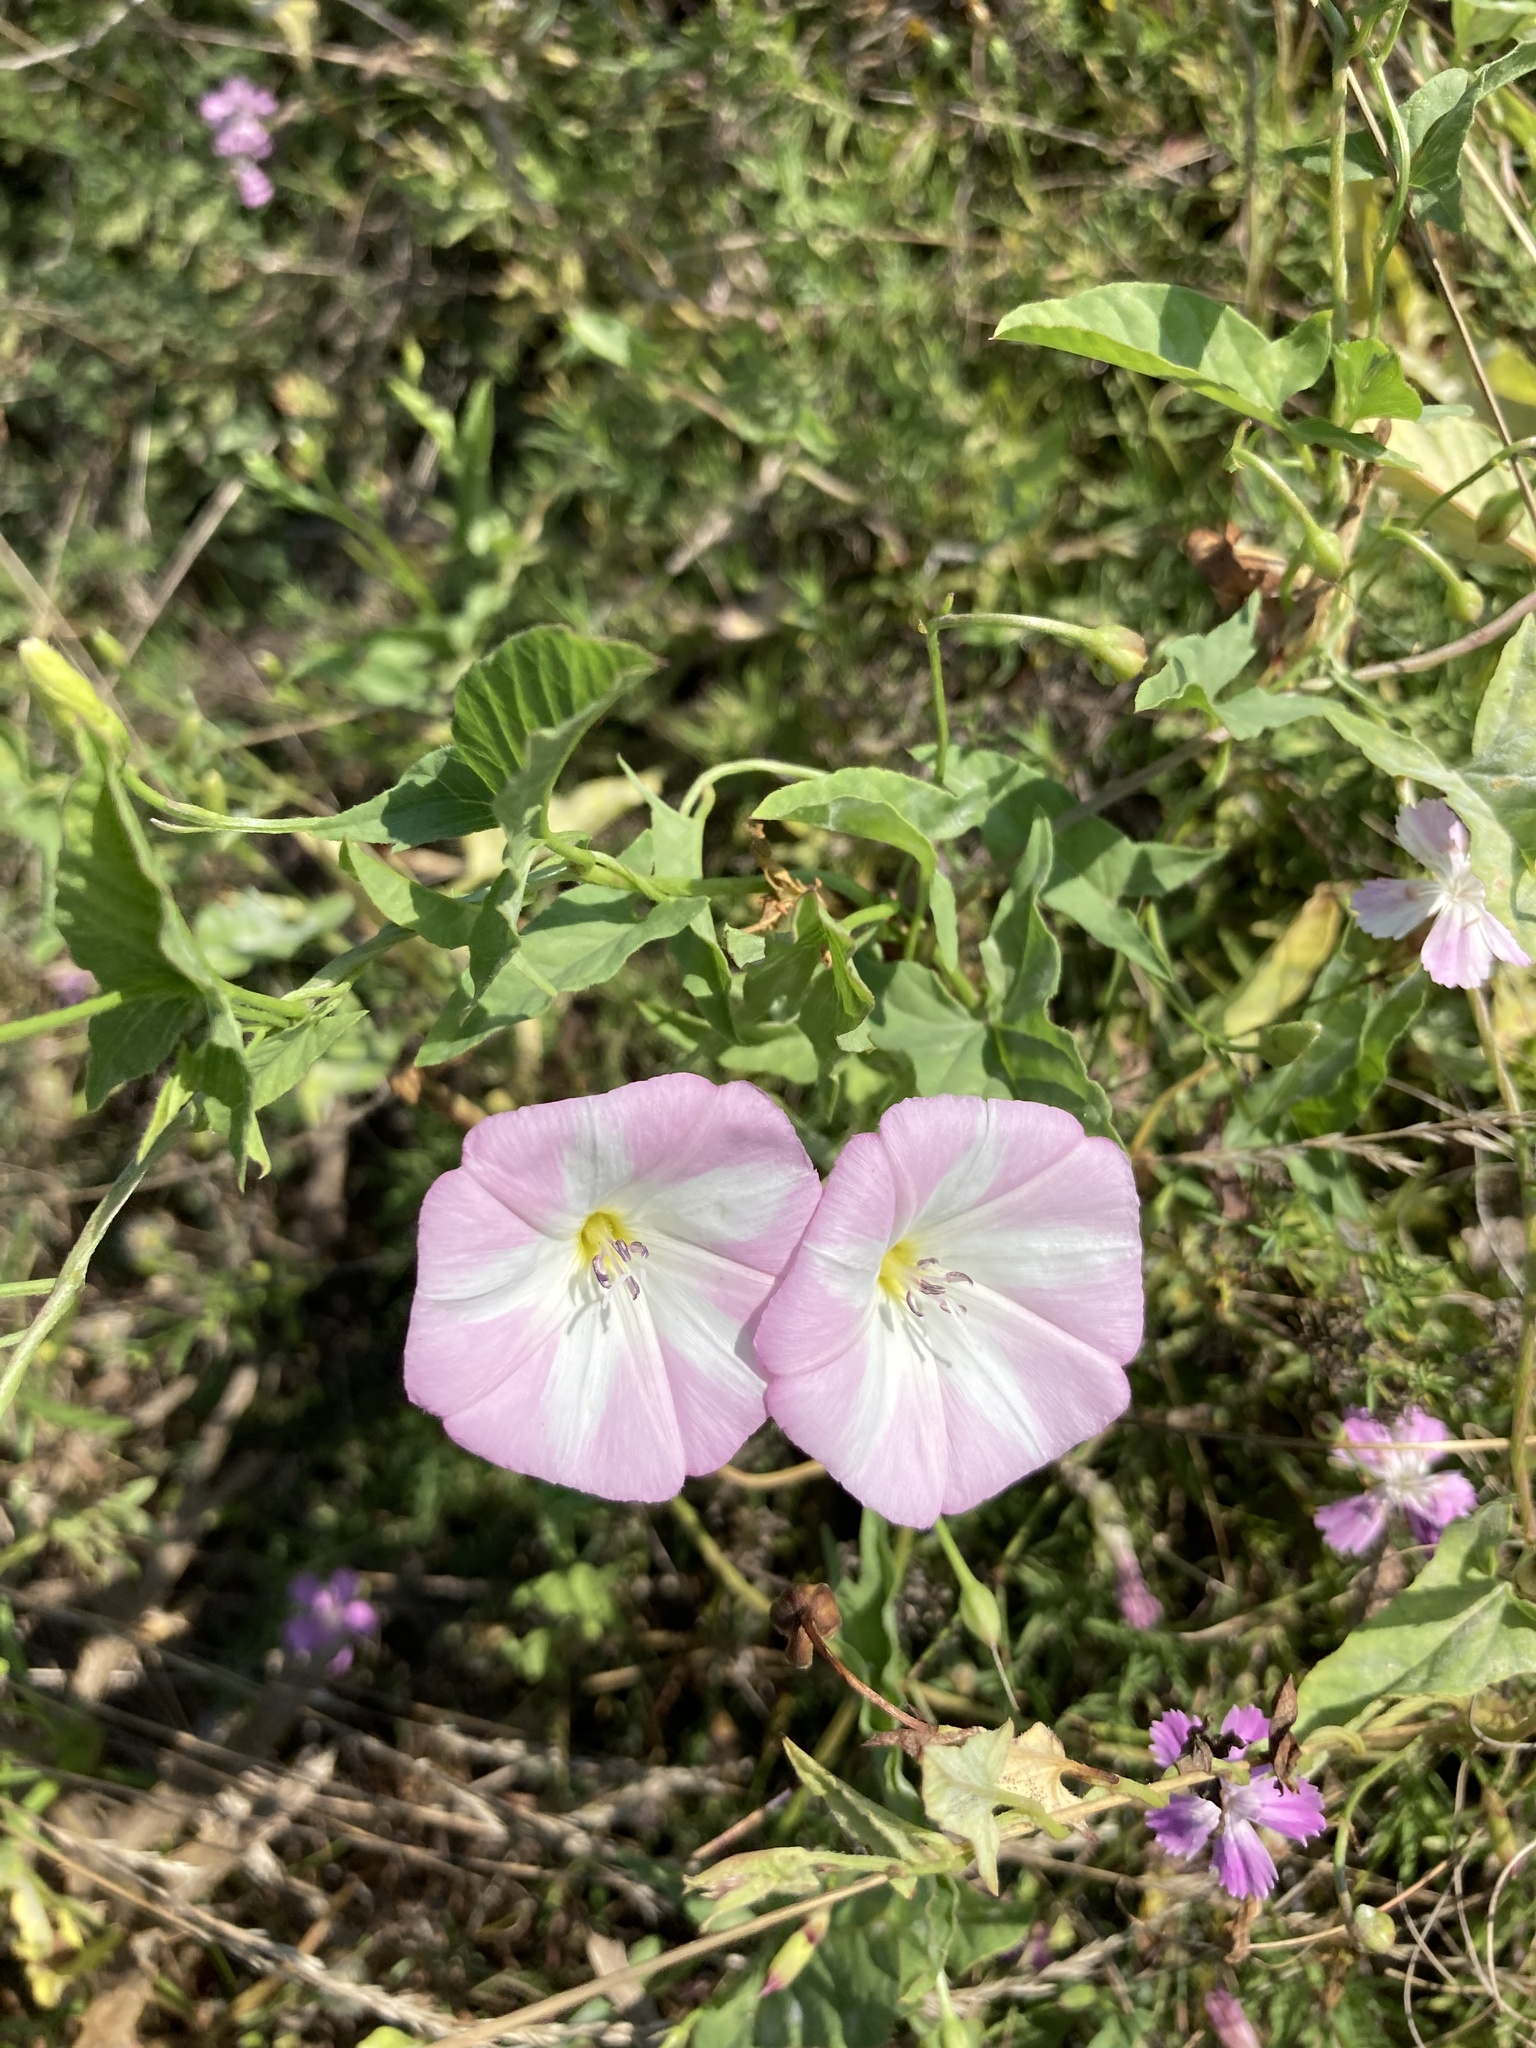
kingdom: Plantae
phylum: Tracheophyta
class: Magnoliopsida
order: Solanales
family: Convolvulaceae
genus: Convolvulus
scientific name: Convolvulus arvensis
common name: Field bindweed
